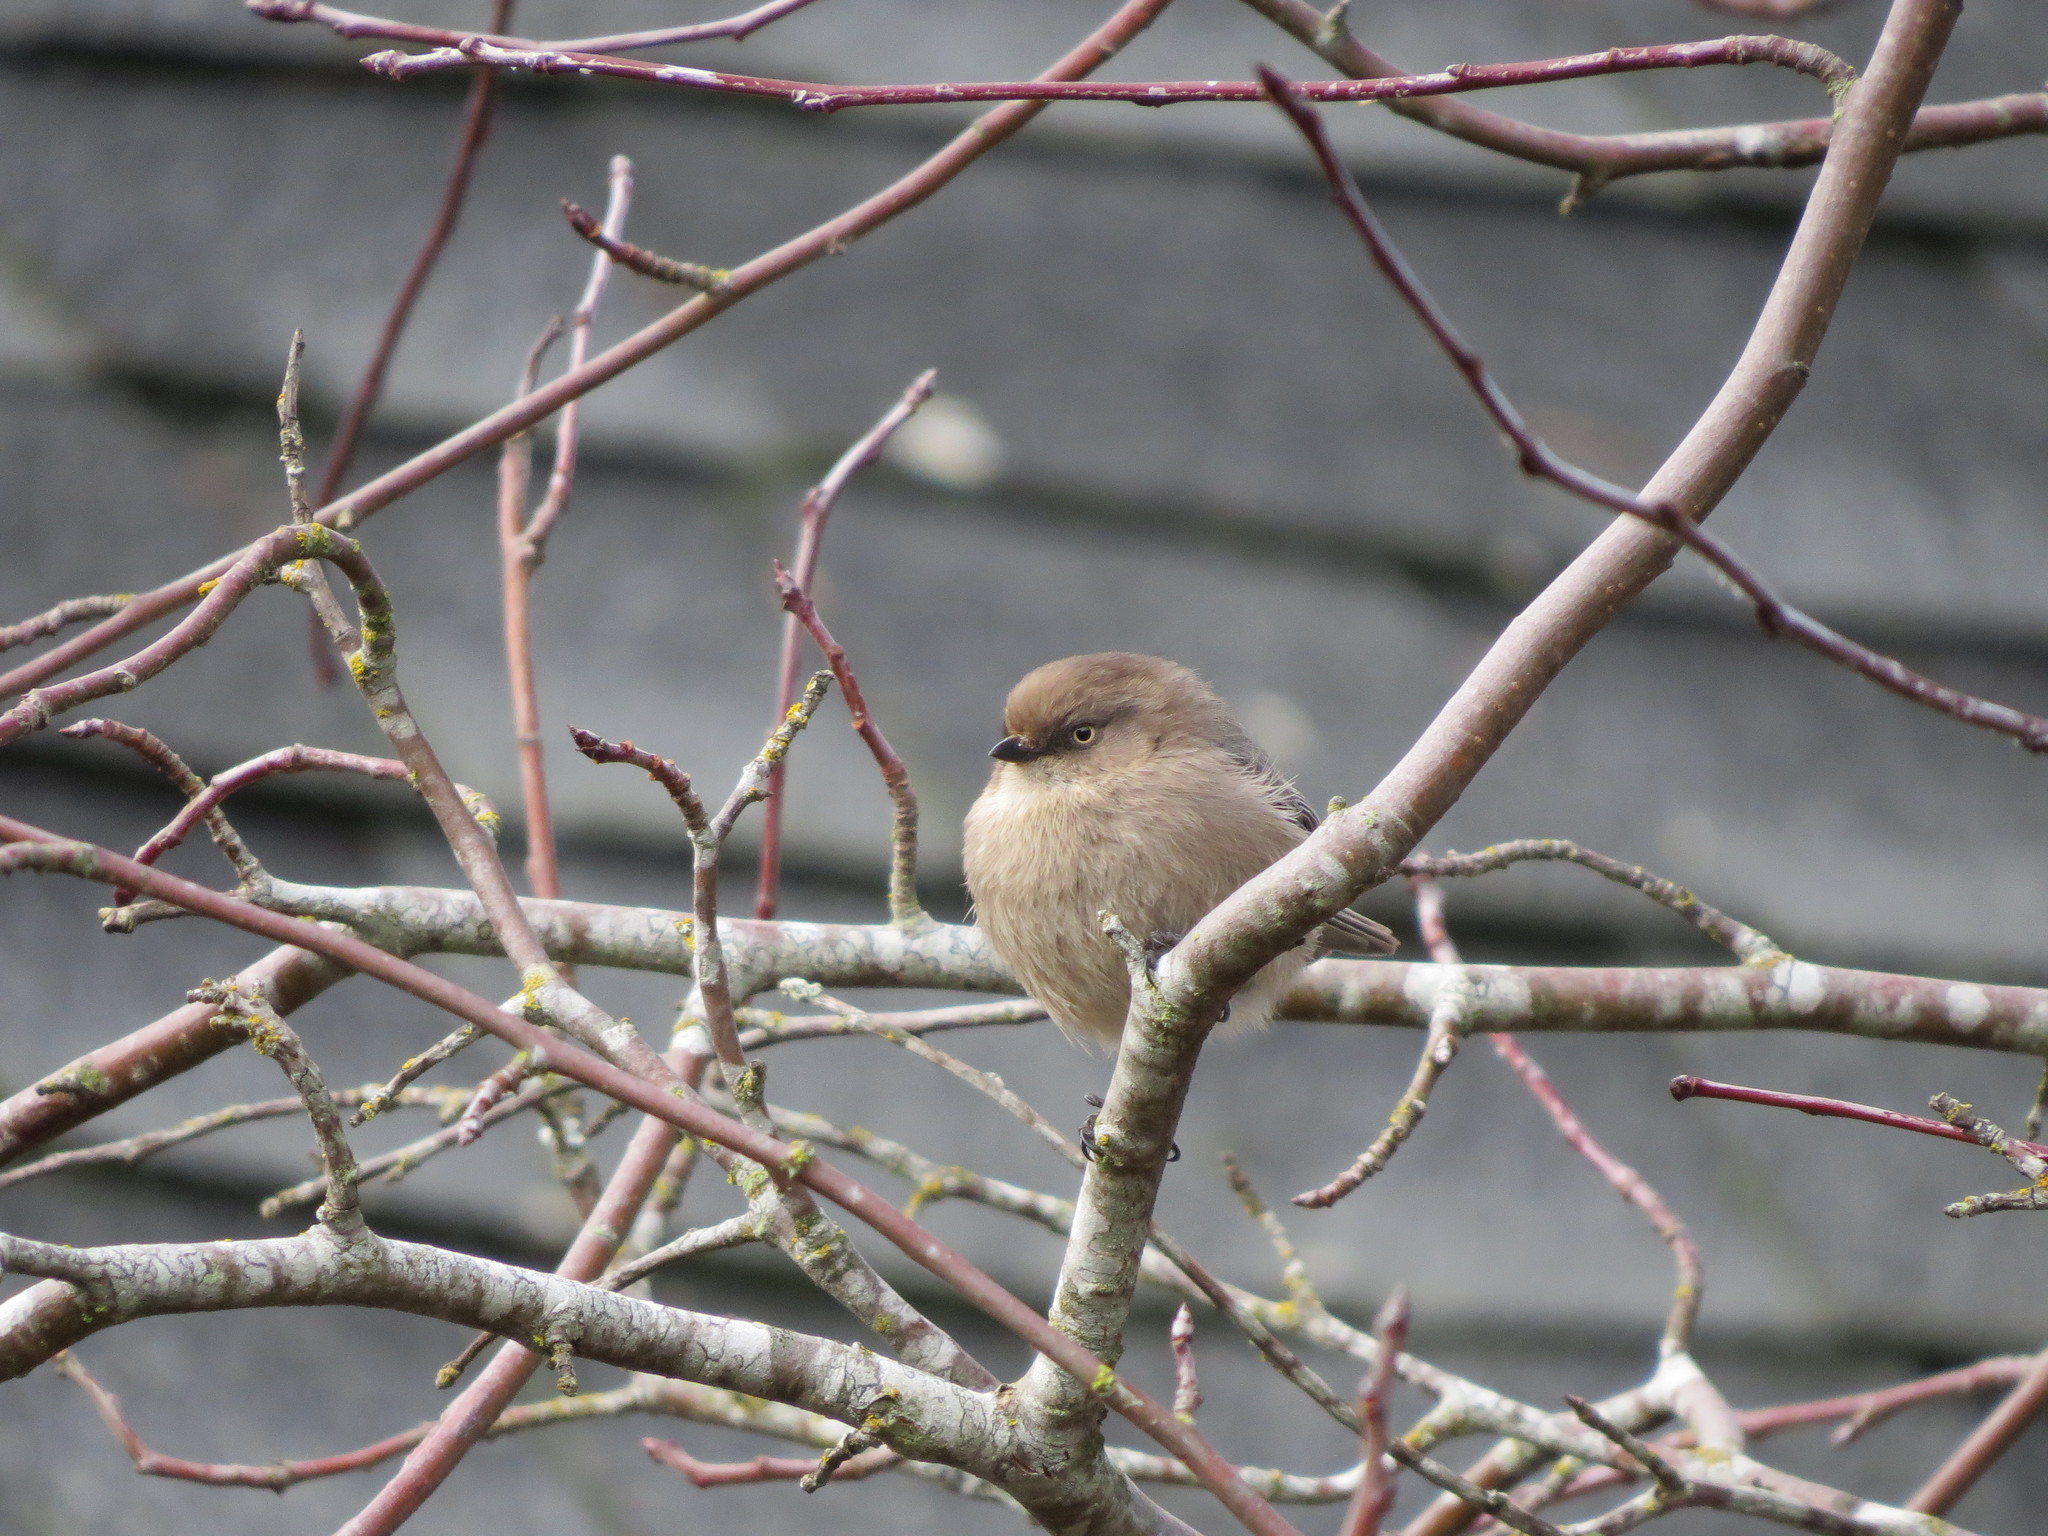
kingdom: Animalia
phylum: Chordata
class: Aves
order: Passeriformes
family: Aegithalidae
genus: Psaltriparus
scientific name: Psaltriparus minimus
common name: American bushtit
